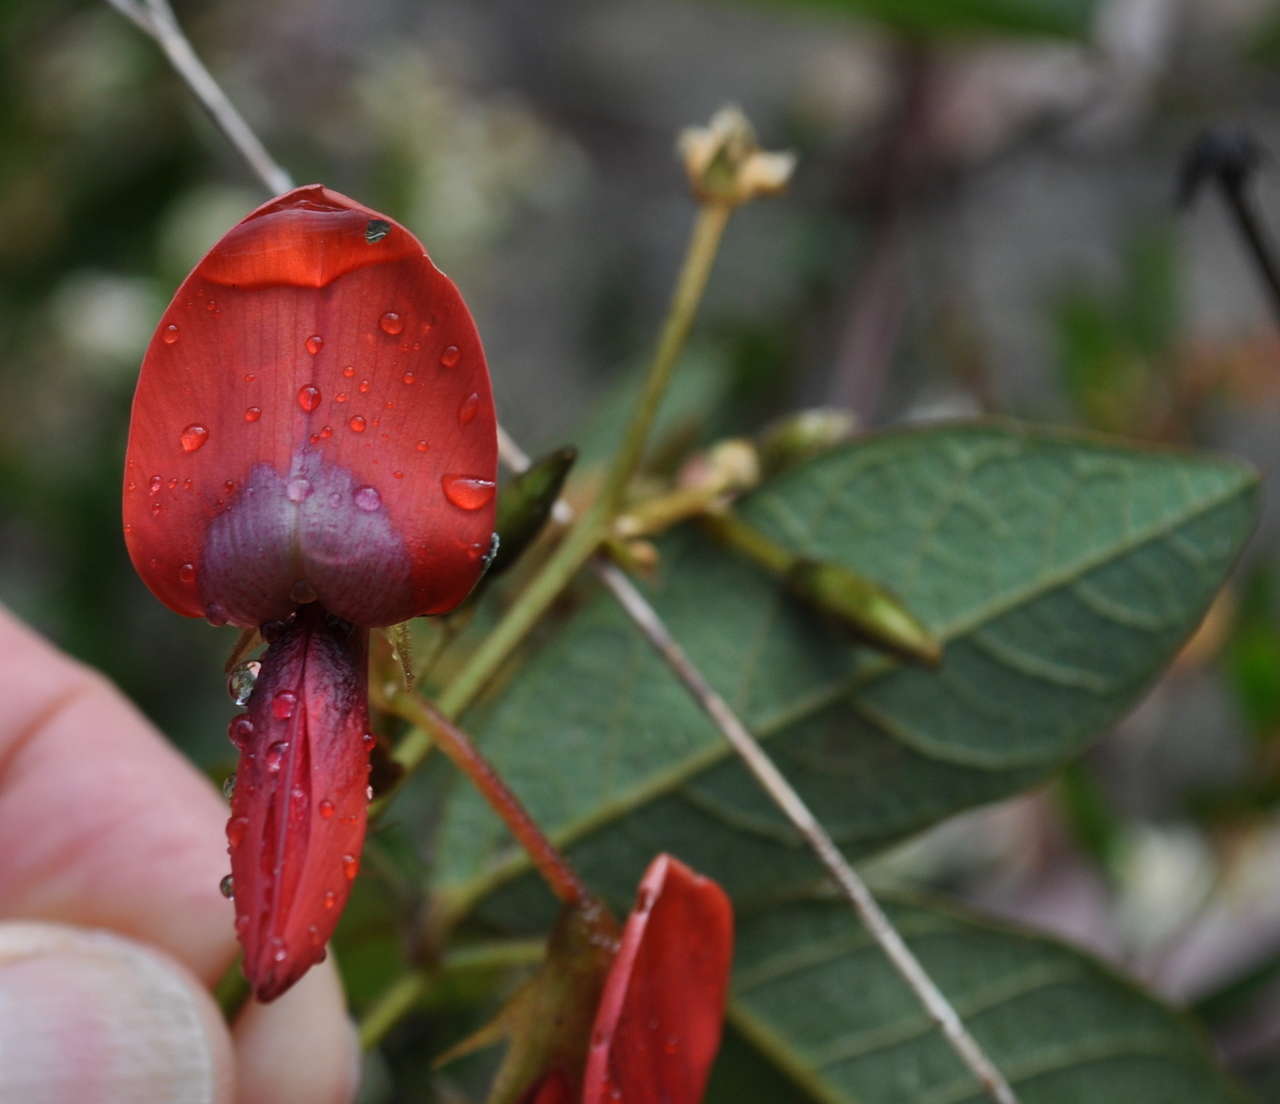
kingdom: Plantae
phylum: Tracheophyta
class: Magnoliopsida
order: Fabales
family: Fabaceae
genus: Kennedia
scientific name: Kennedia rubicunda
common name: Red kennedy-pea
